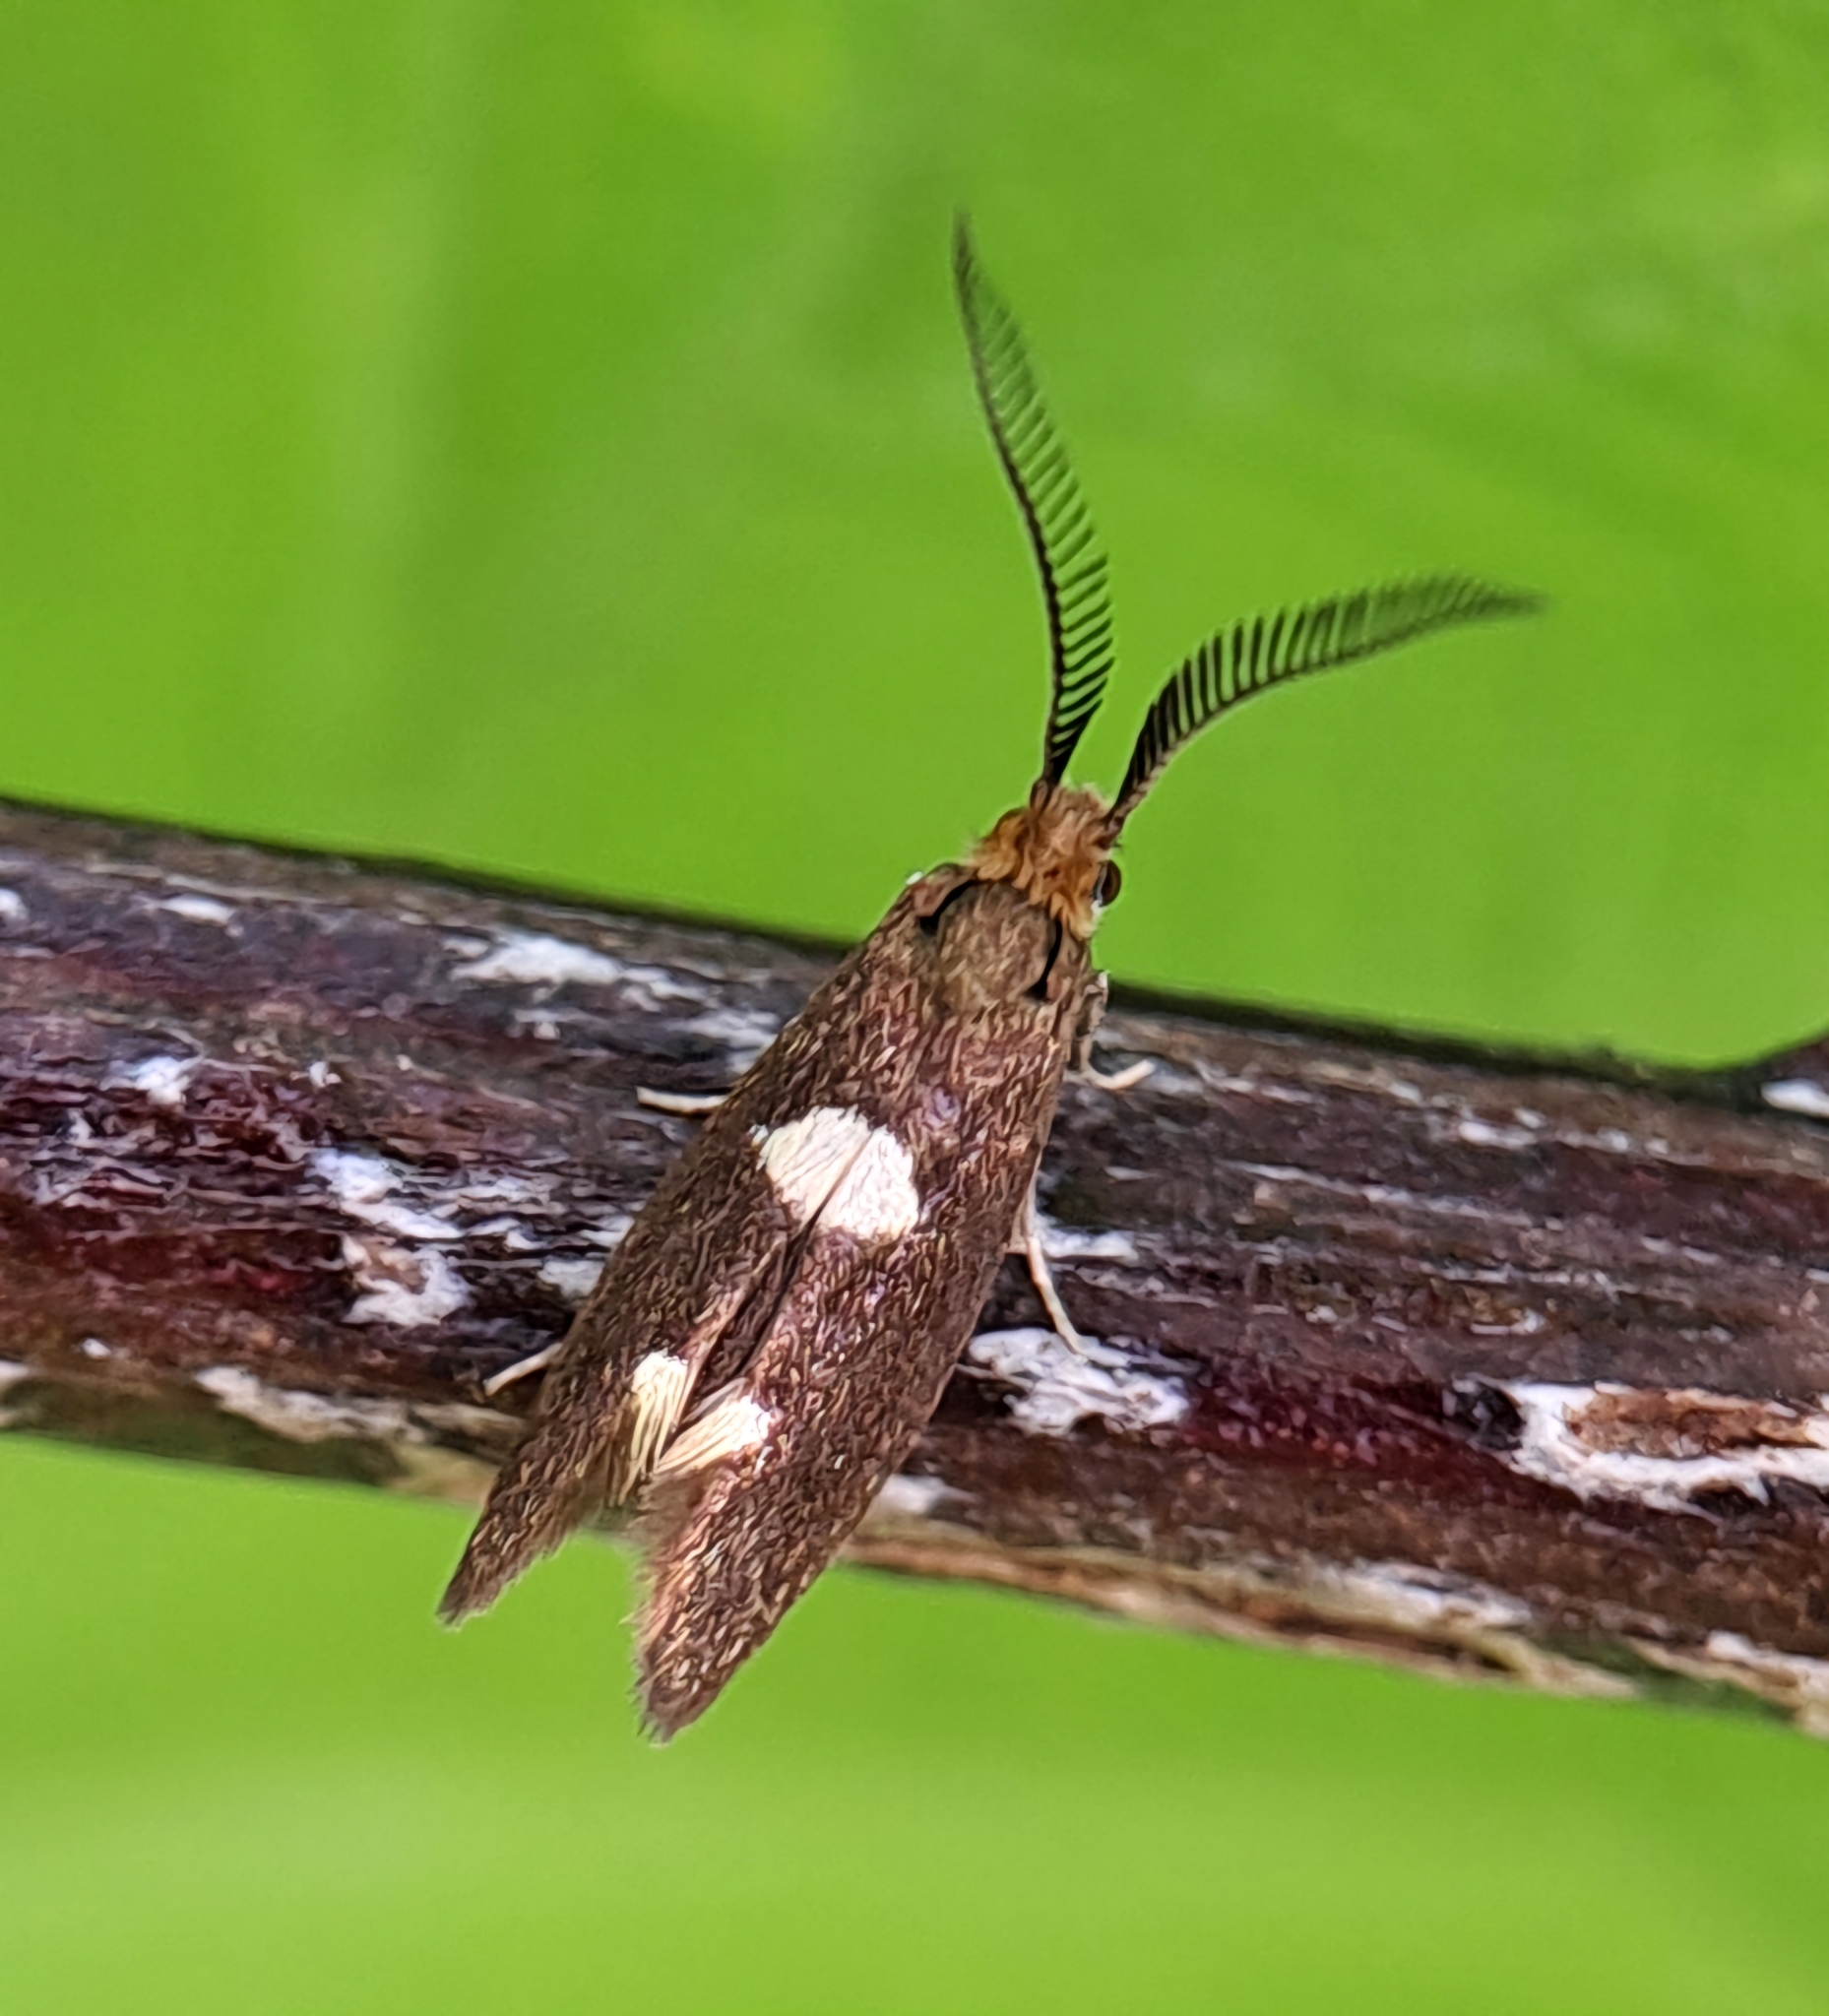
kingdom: Animalia
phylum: Arthropoda
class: Insecta
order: Lepidoptera
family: Incurvariidae
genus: Incurvaria
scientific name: Incurvaria masculella
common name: Feathered leaf-cutter
